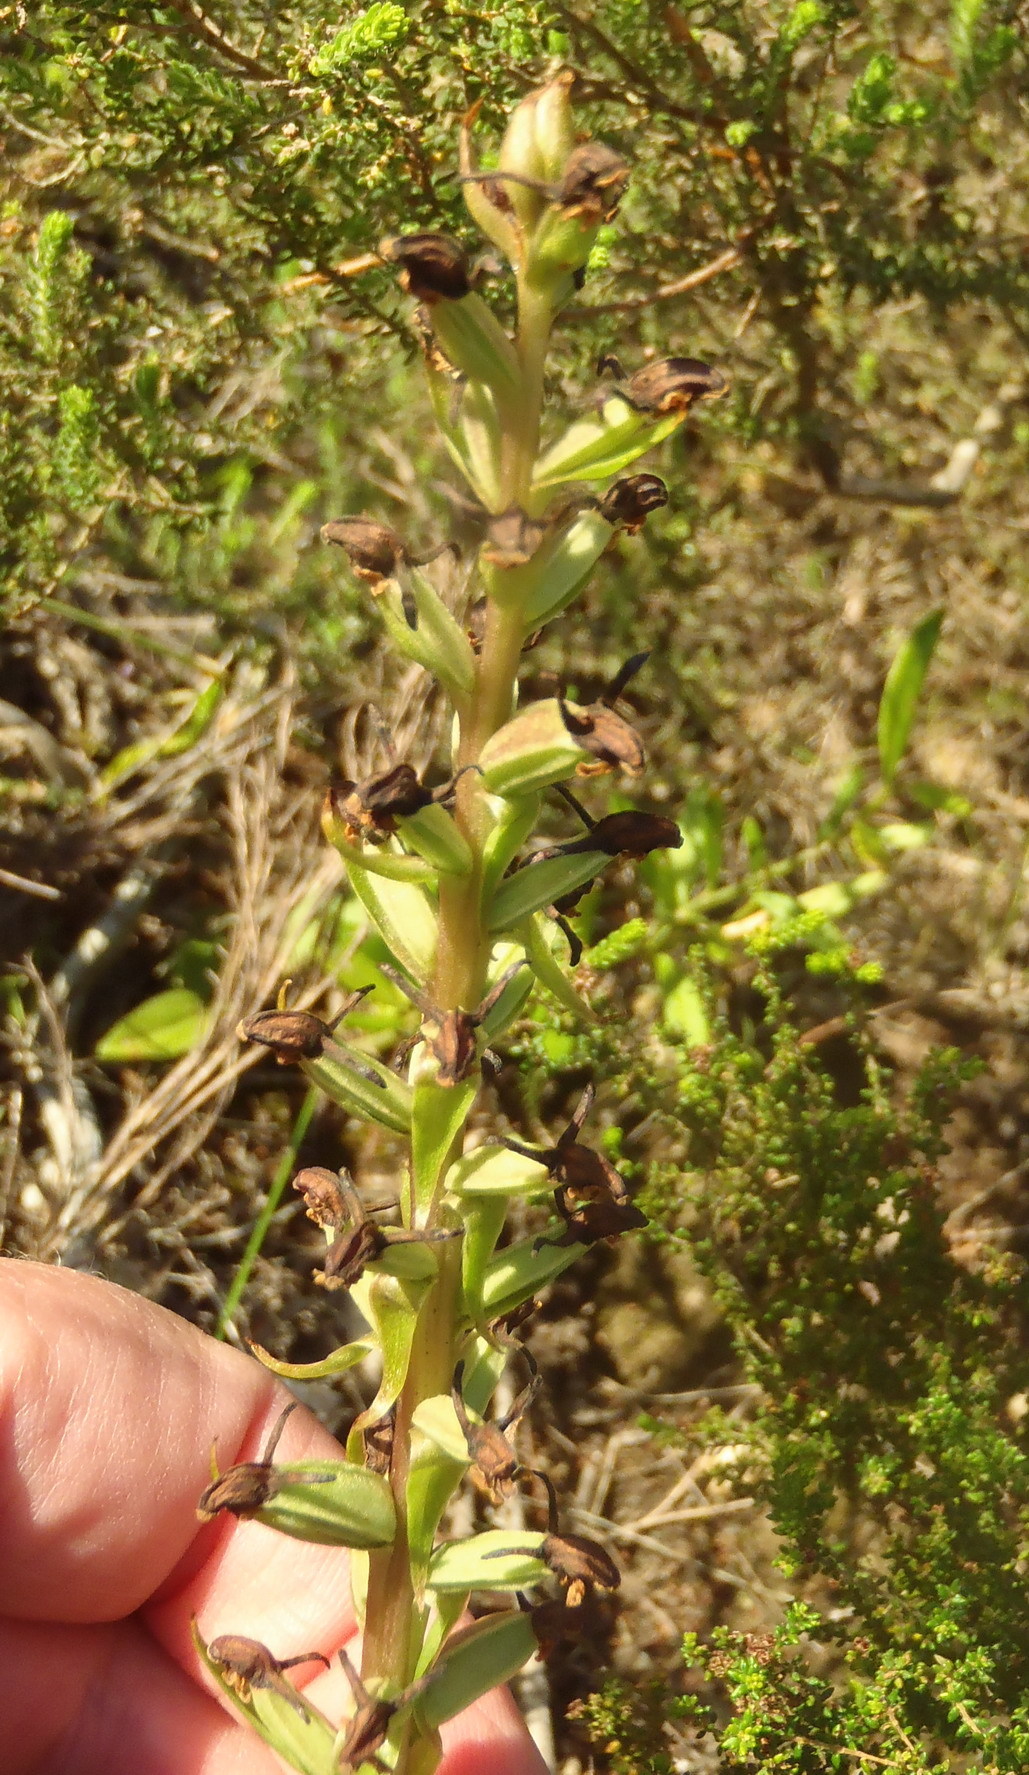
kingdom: Plantae
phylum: Tracheophyta
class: Liliopsida
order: Asparagales
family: Orchidaceae
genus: Satyrium
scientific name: Satyrium parviflorum
